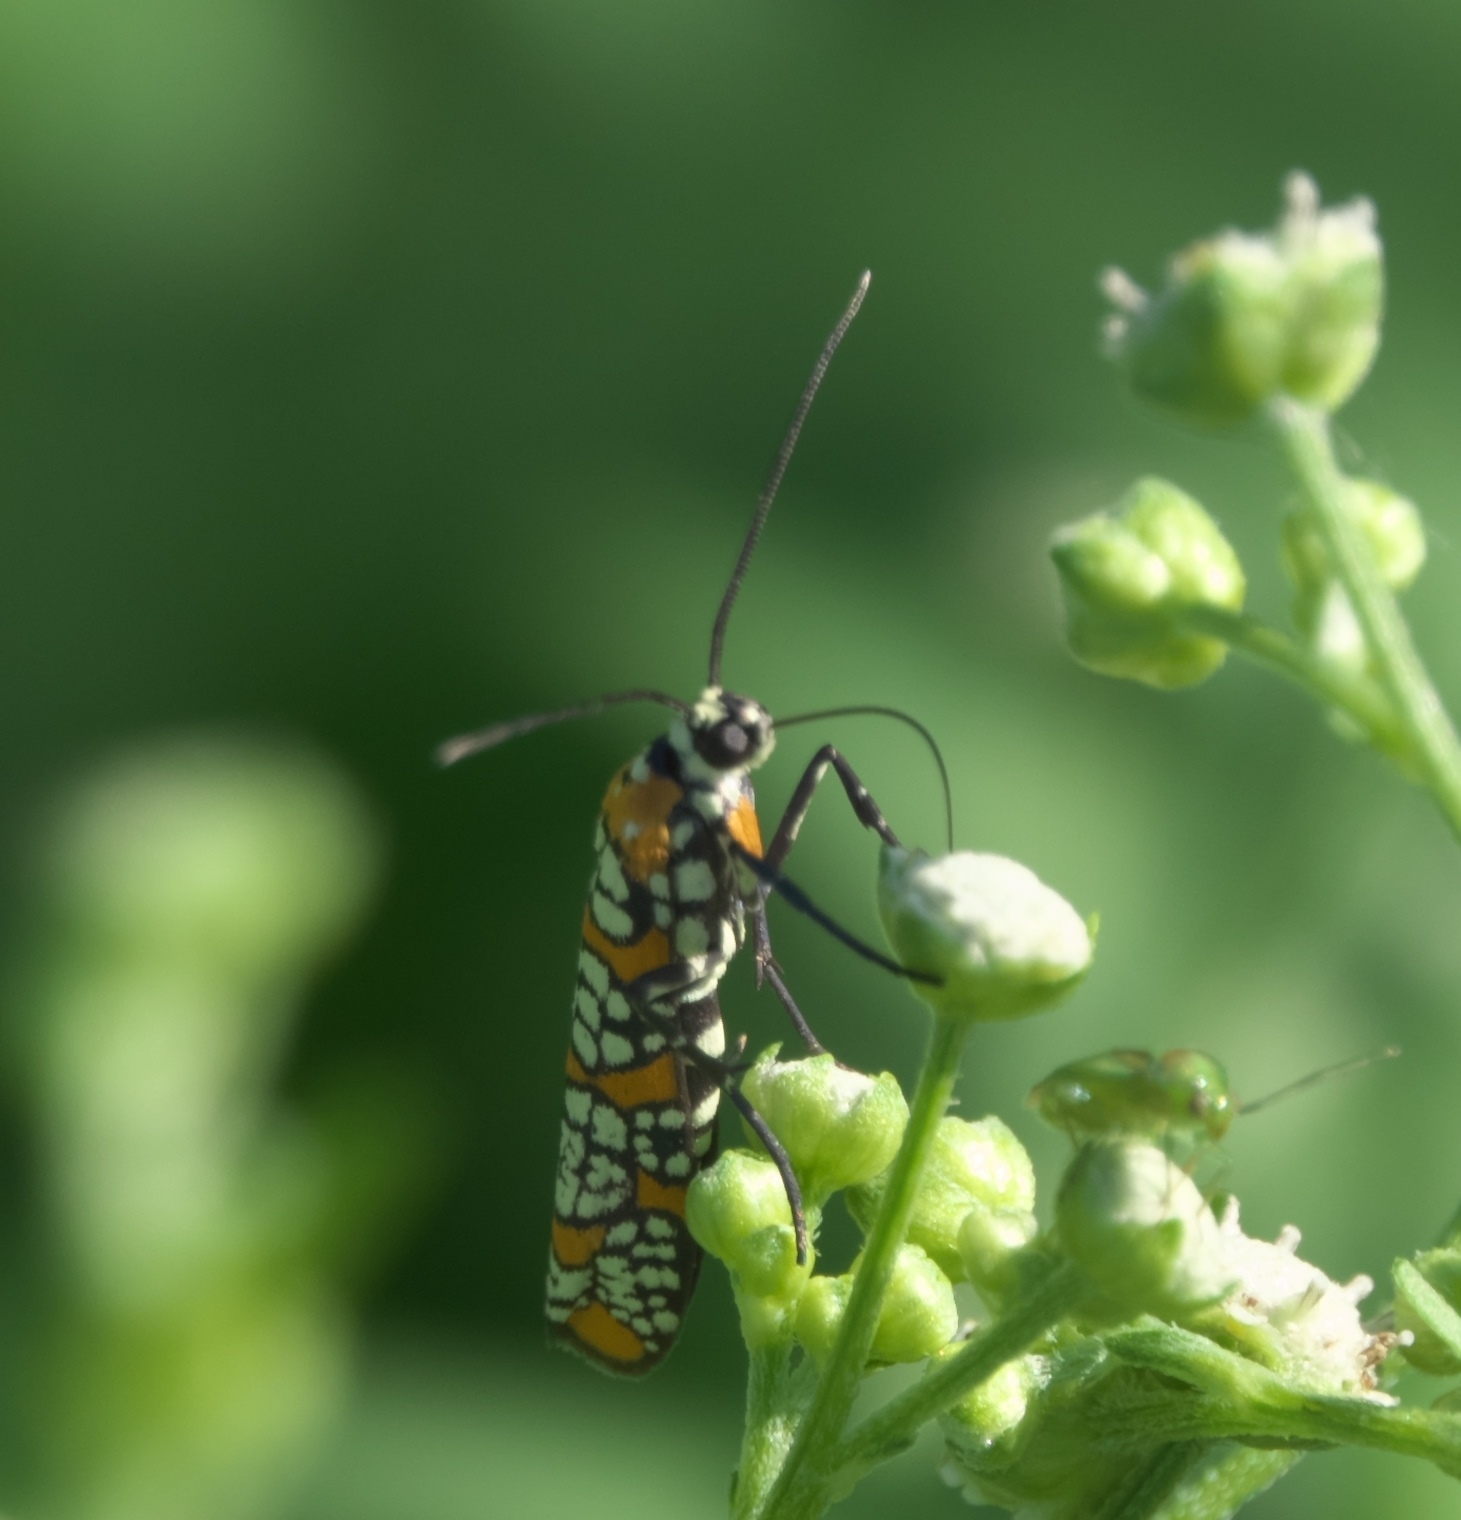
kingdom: Animalia
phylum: Arthropoda
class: Insecta
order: Lepidoptera
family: Attevidae
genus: Atteva
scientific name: Atteva punctella
